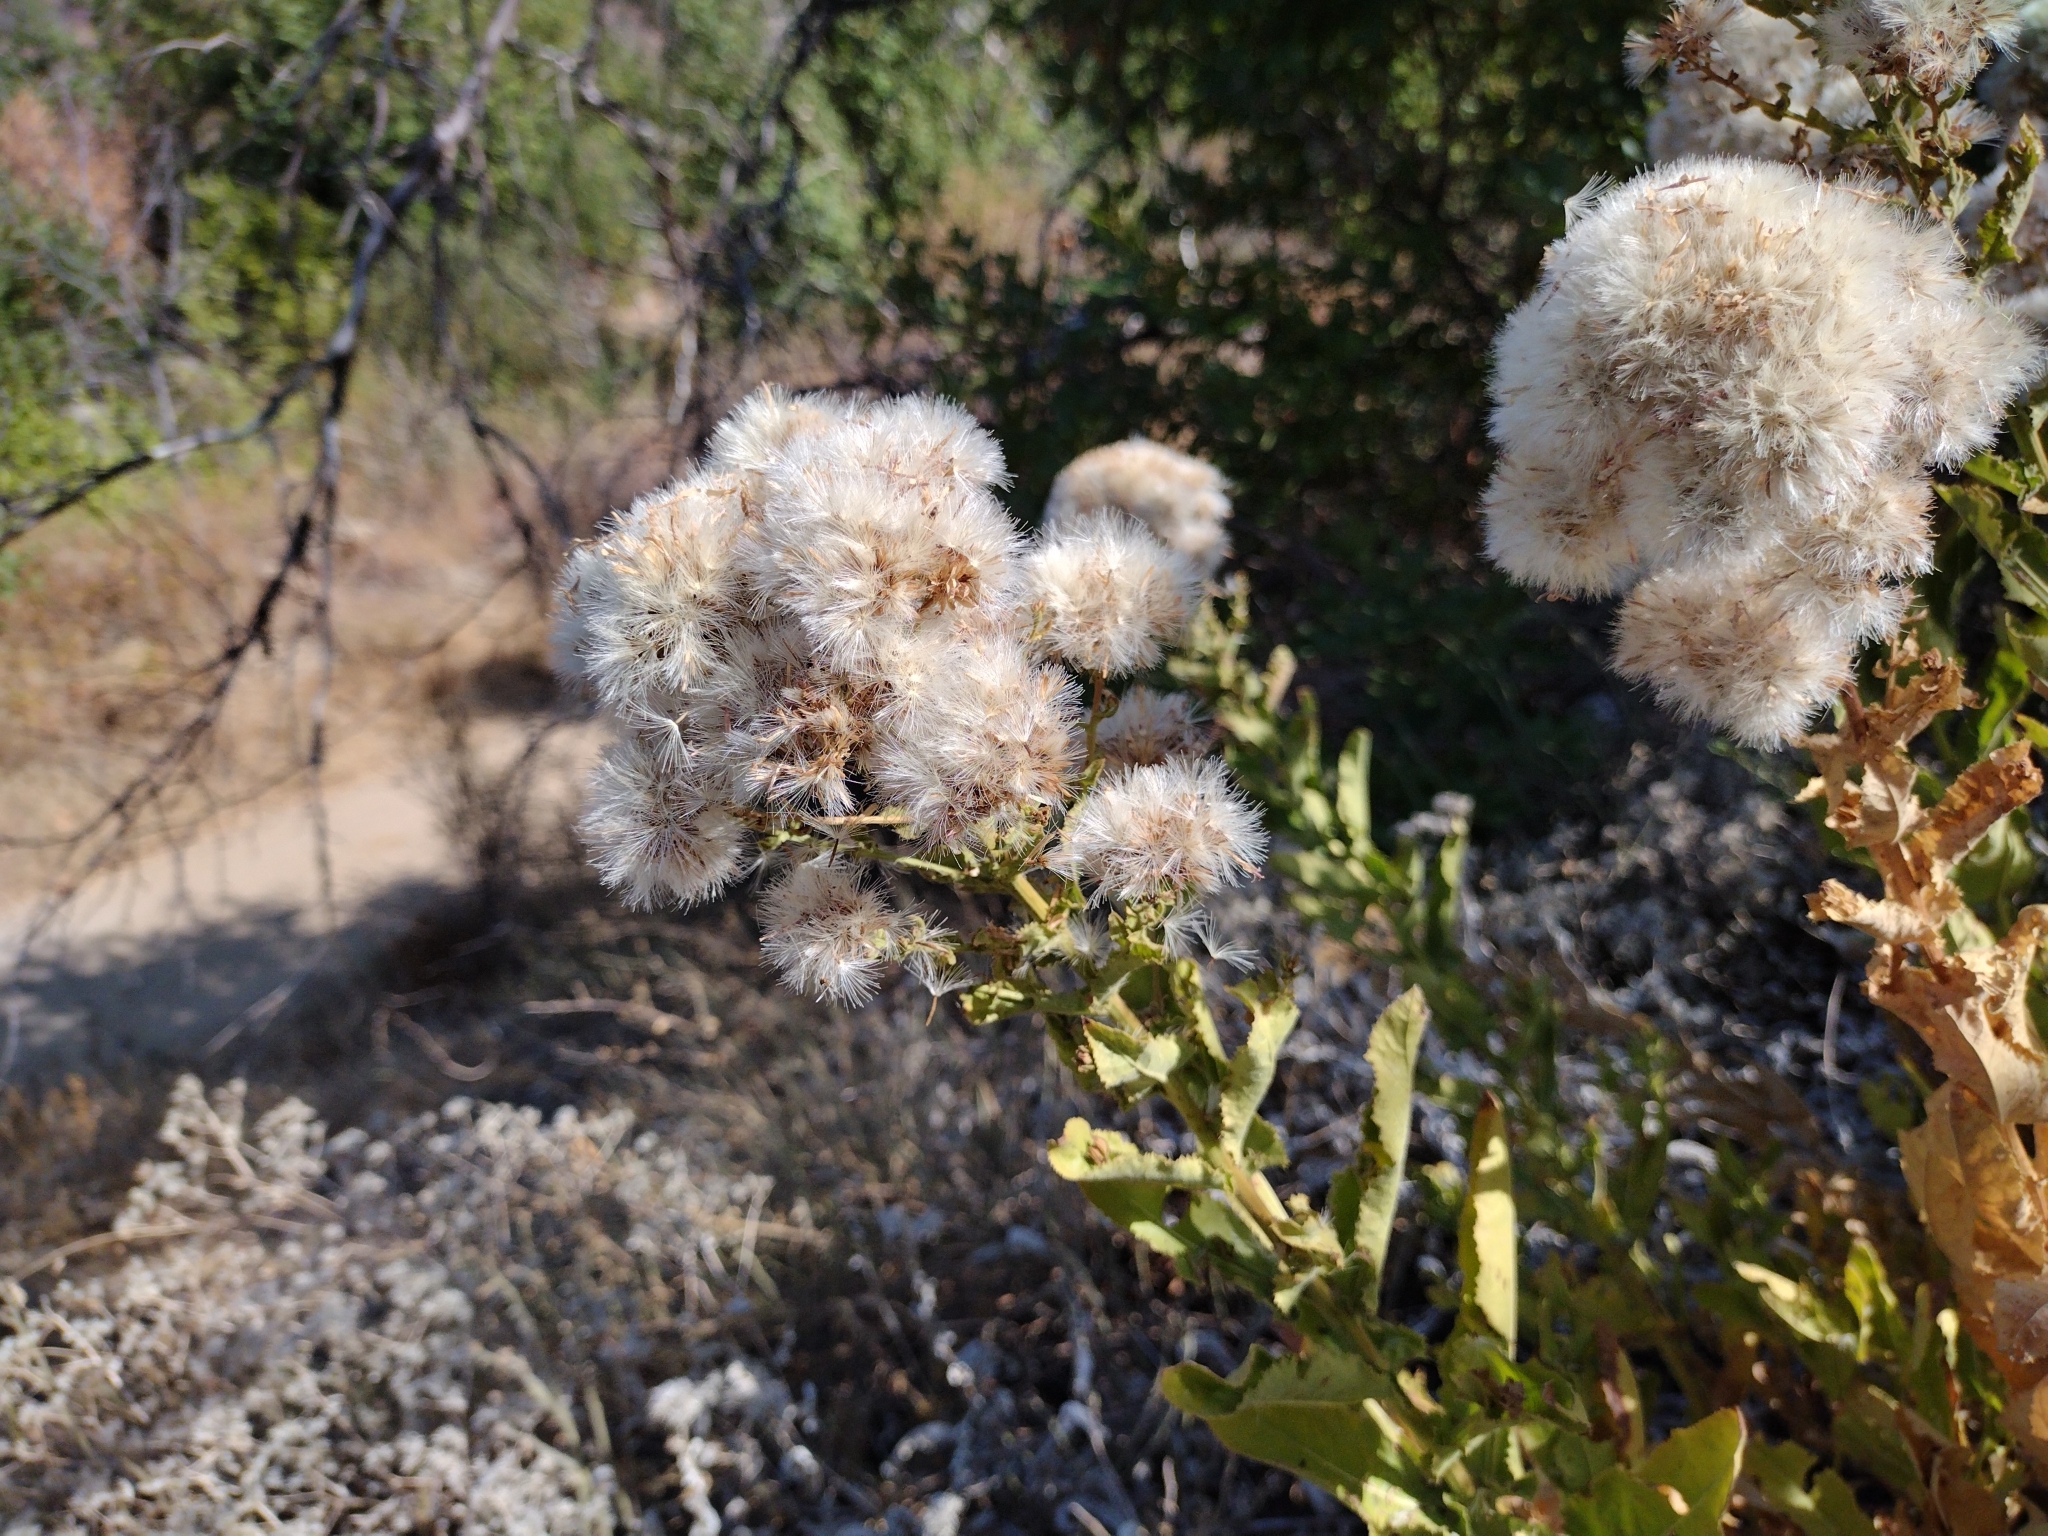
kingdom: Plantae
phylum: Tracheophyta
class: Magnoliopsida
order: Asterales
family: Asteraceae
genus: Acourtia
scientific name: Acourtia microcephala
